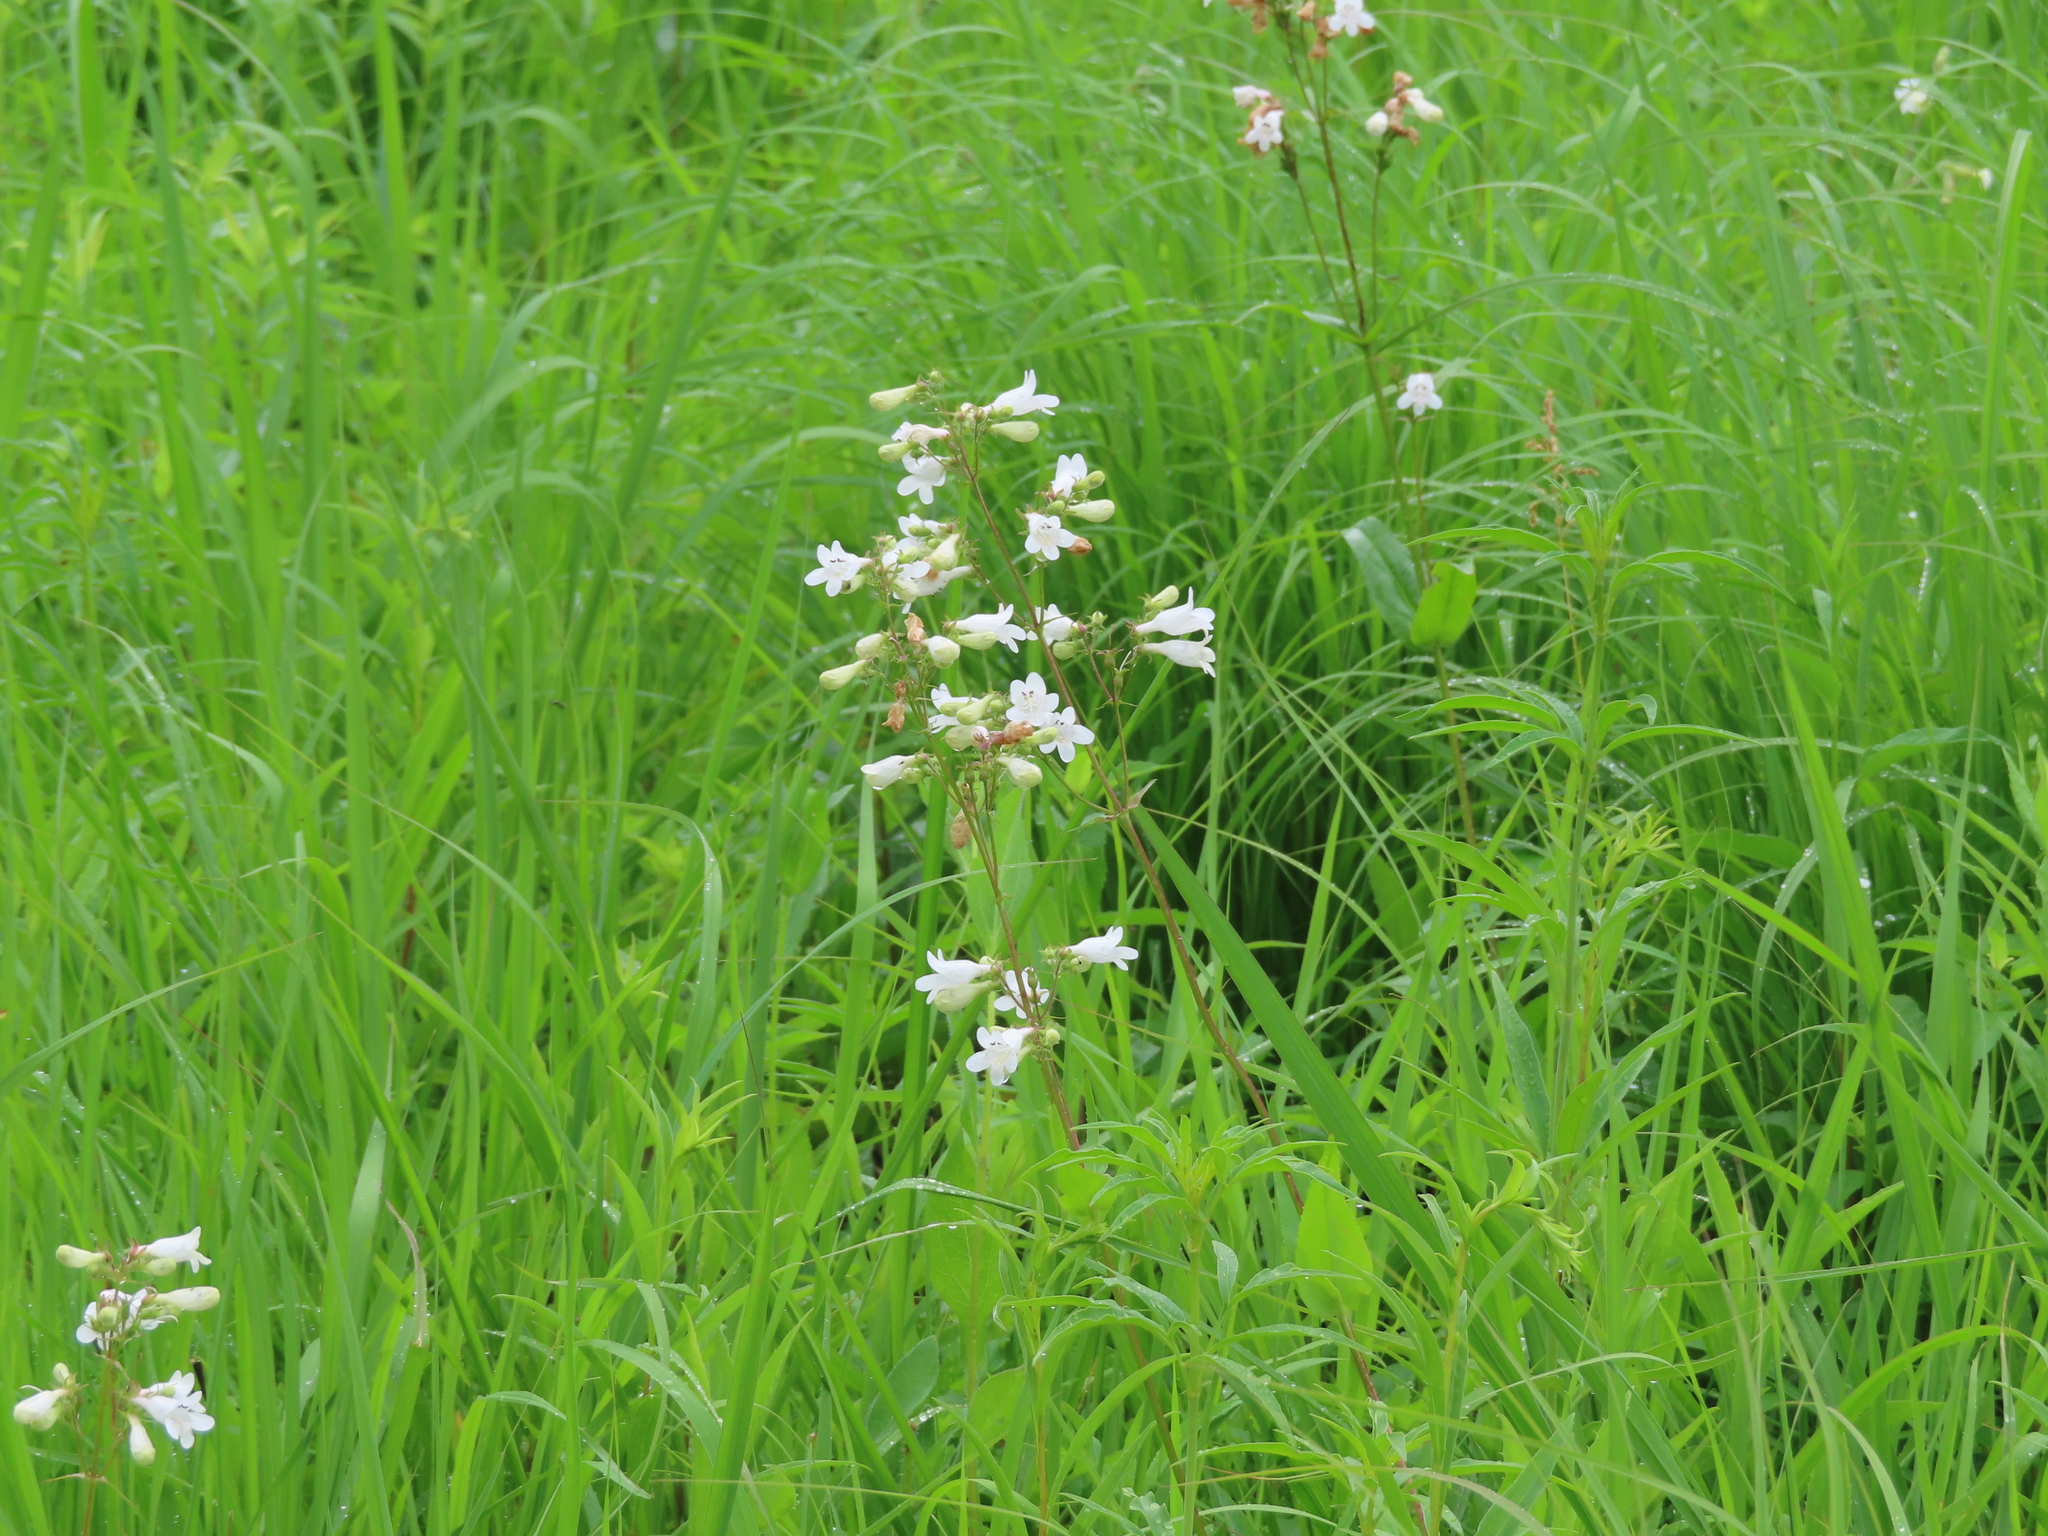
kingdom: Plantae
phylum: Tracheophyta
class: Magnoliopsida
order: Lamiales
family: Plantaginaceae
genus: Penstemon
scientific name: Penstemon digitalis
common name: Foxglove beardtongue
